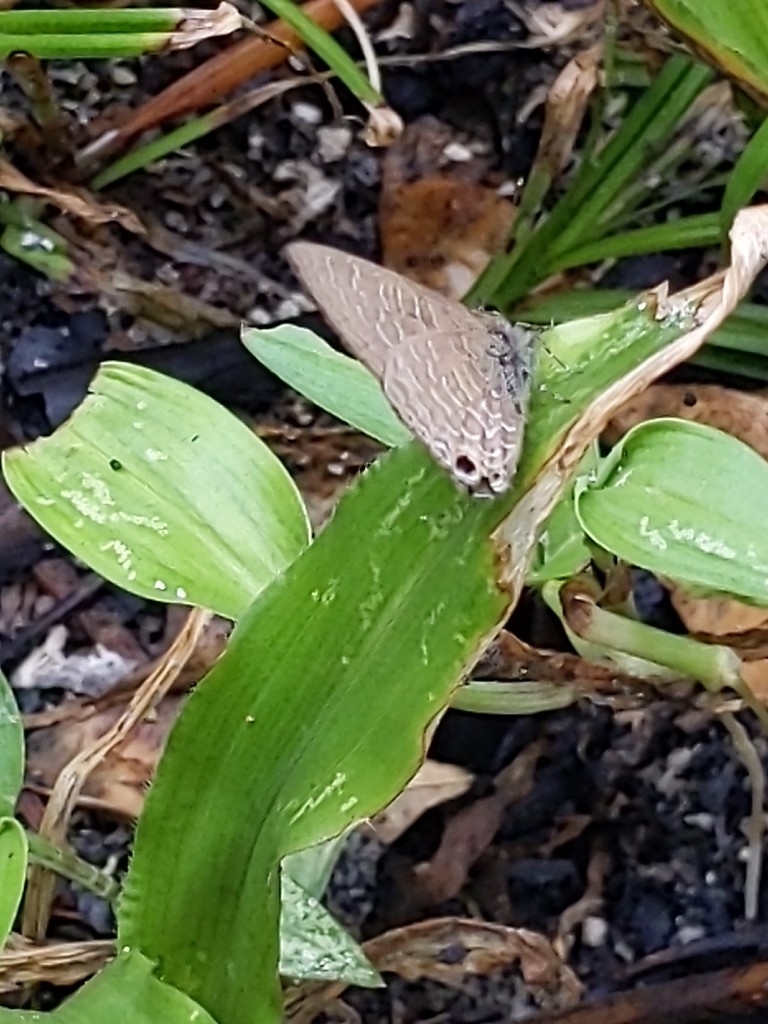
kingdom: Animalia
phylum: Arthropoda
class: Insecta
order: Lepidoptera
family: Lycaenidae
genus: Ionolyce
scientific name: Ionolyce helicon
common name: Pointed line blue
